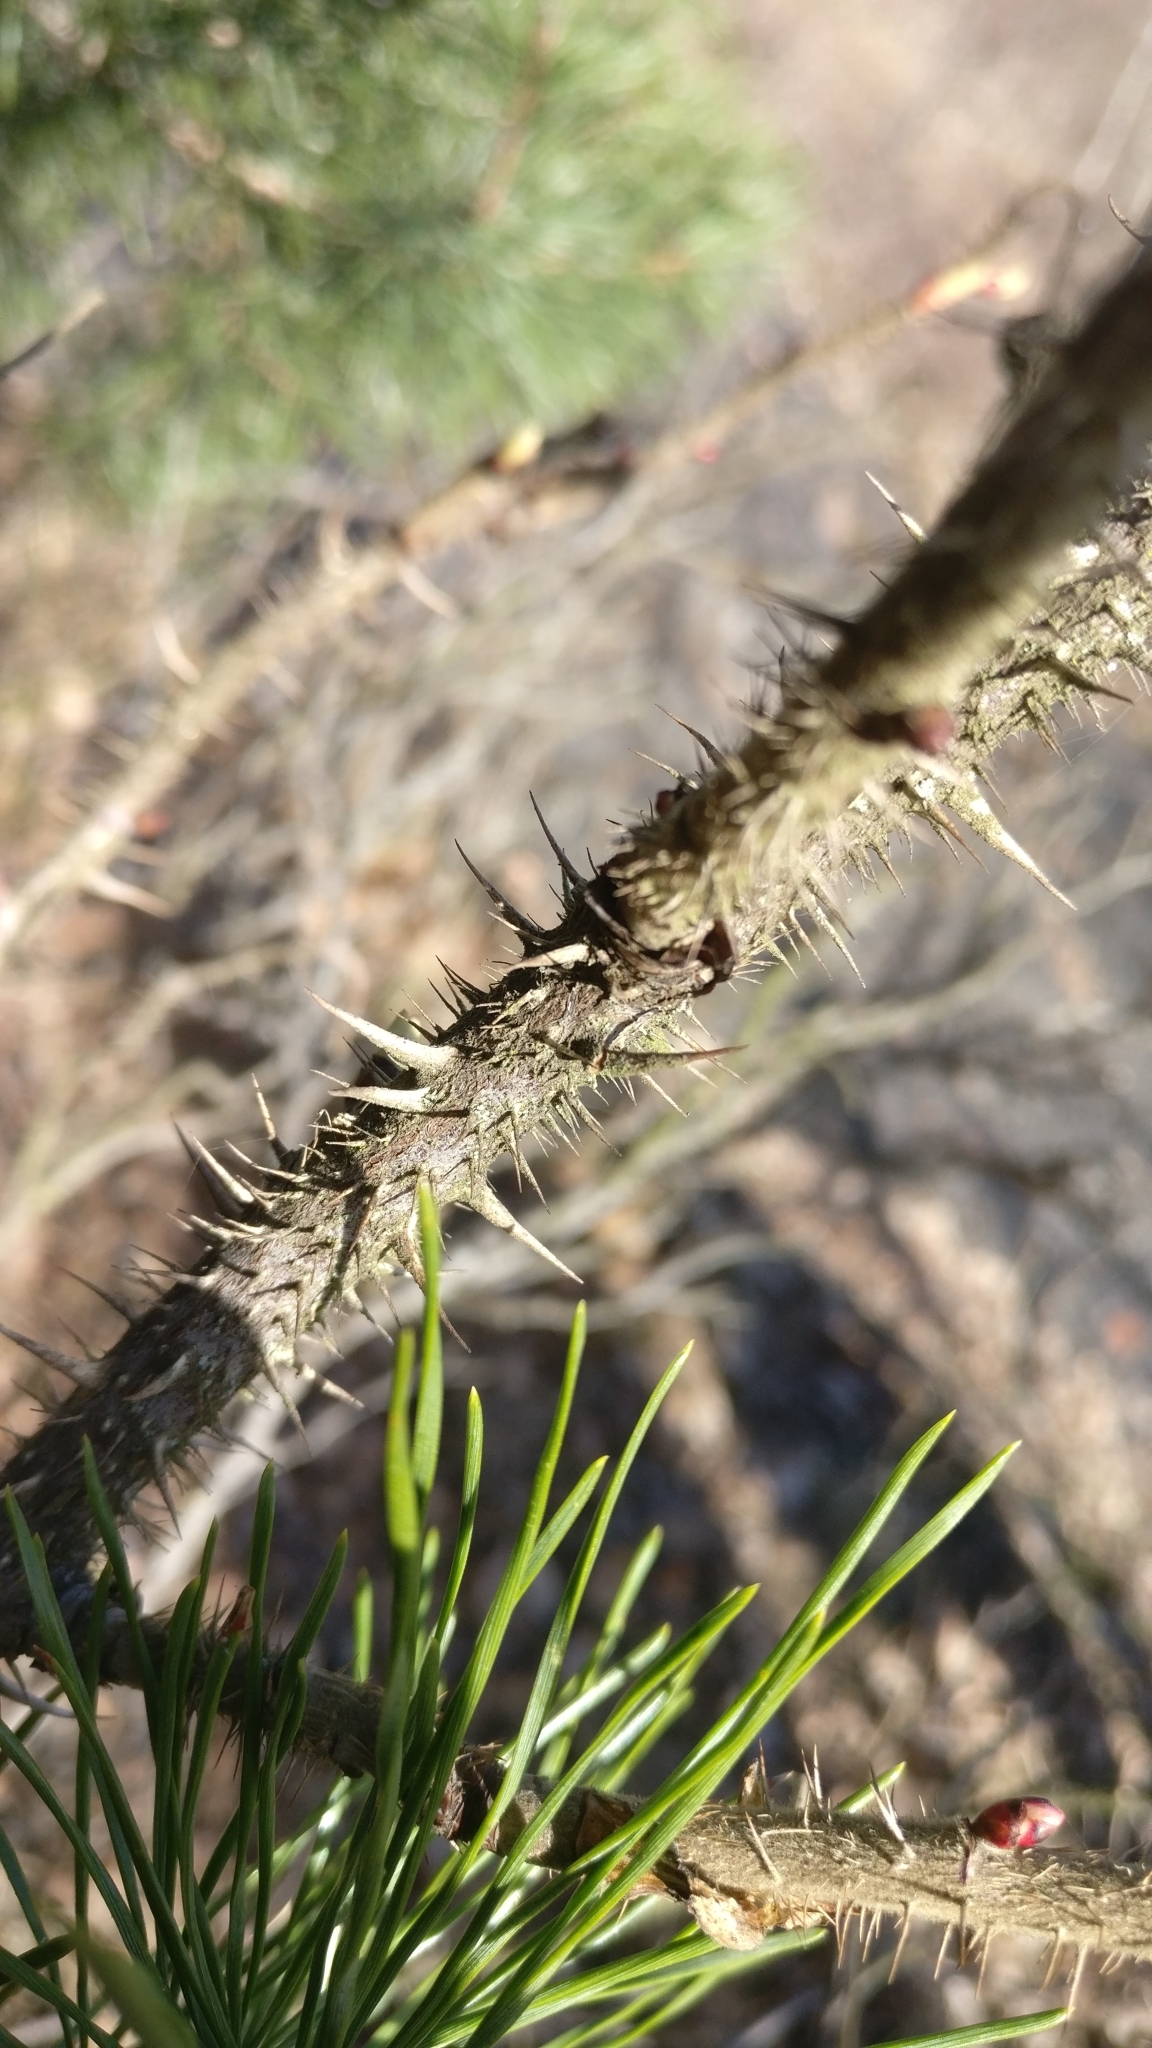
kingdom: Plantae
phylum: Tracheophyta
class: Magnoliopsida
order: Rosales
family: Rosaceae
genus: Rosa
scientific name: Rosa rugosa
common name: Japanese rose
